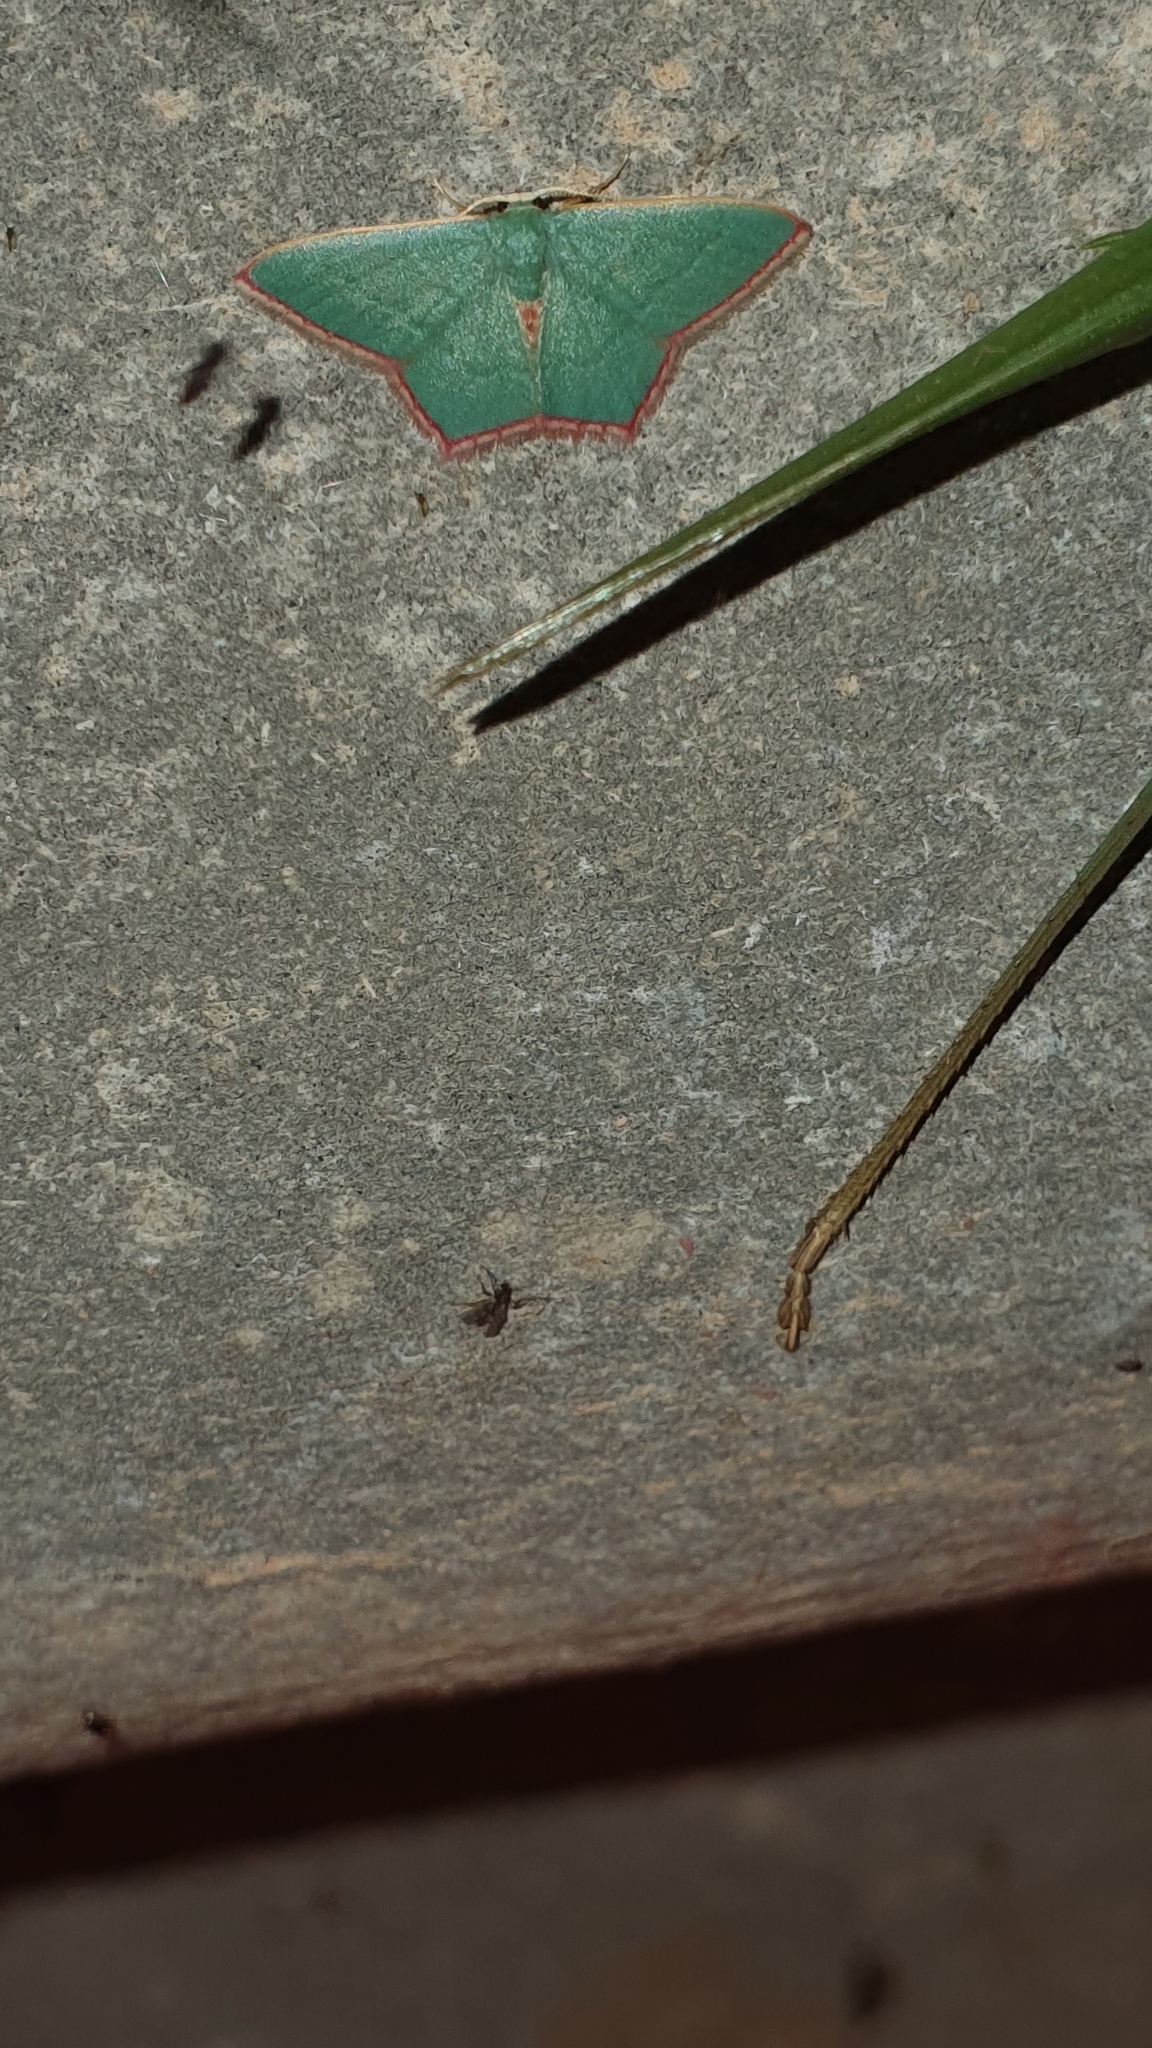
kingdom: Animalia
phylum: Arthropoda
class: Insecta
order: Lepidoptera
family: Geometridae
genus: Pamphlebia
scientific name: Pamphlebia rubrolimbraria
